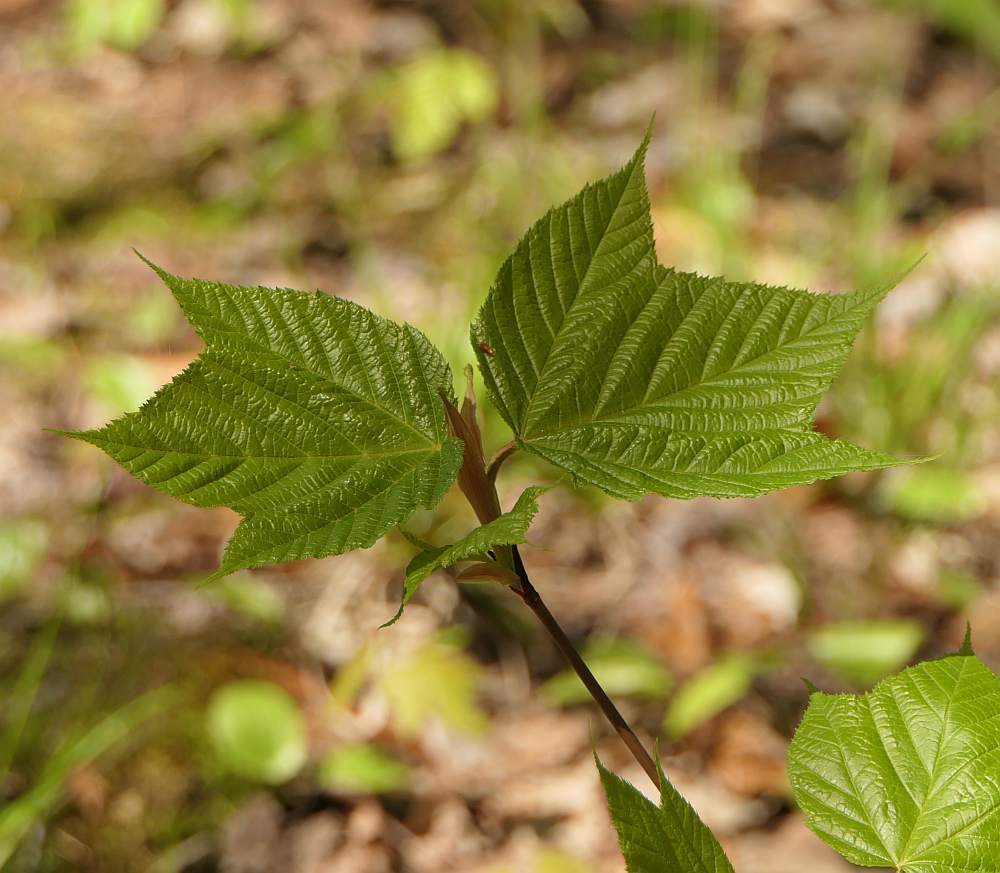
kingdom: Plantae
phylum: Tracheophyta
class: Magnoliopsida
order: Sapindales
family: Sapindaceae
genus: Acer
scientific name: Acer pensylvanicum
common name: Moosewood
